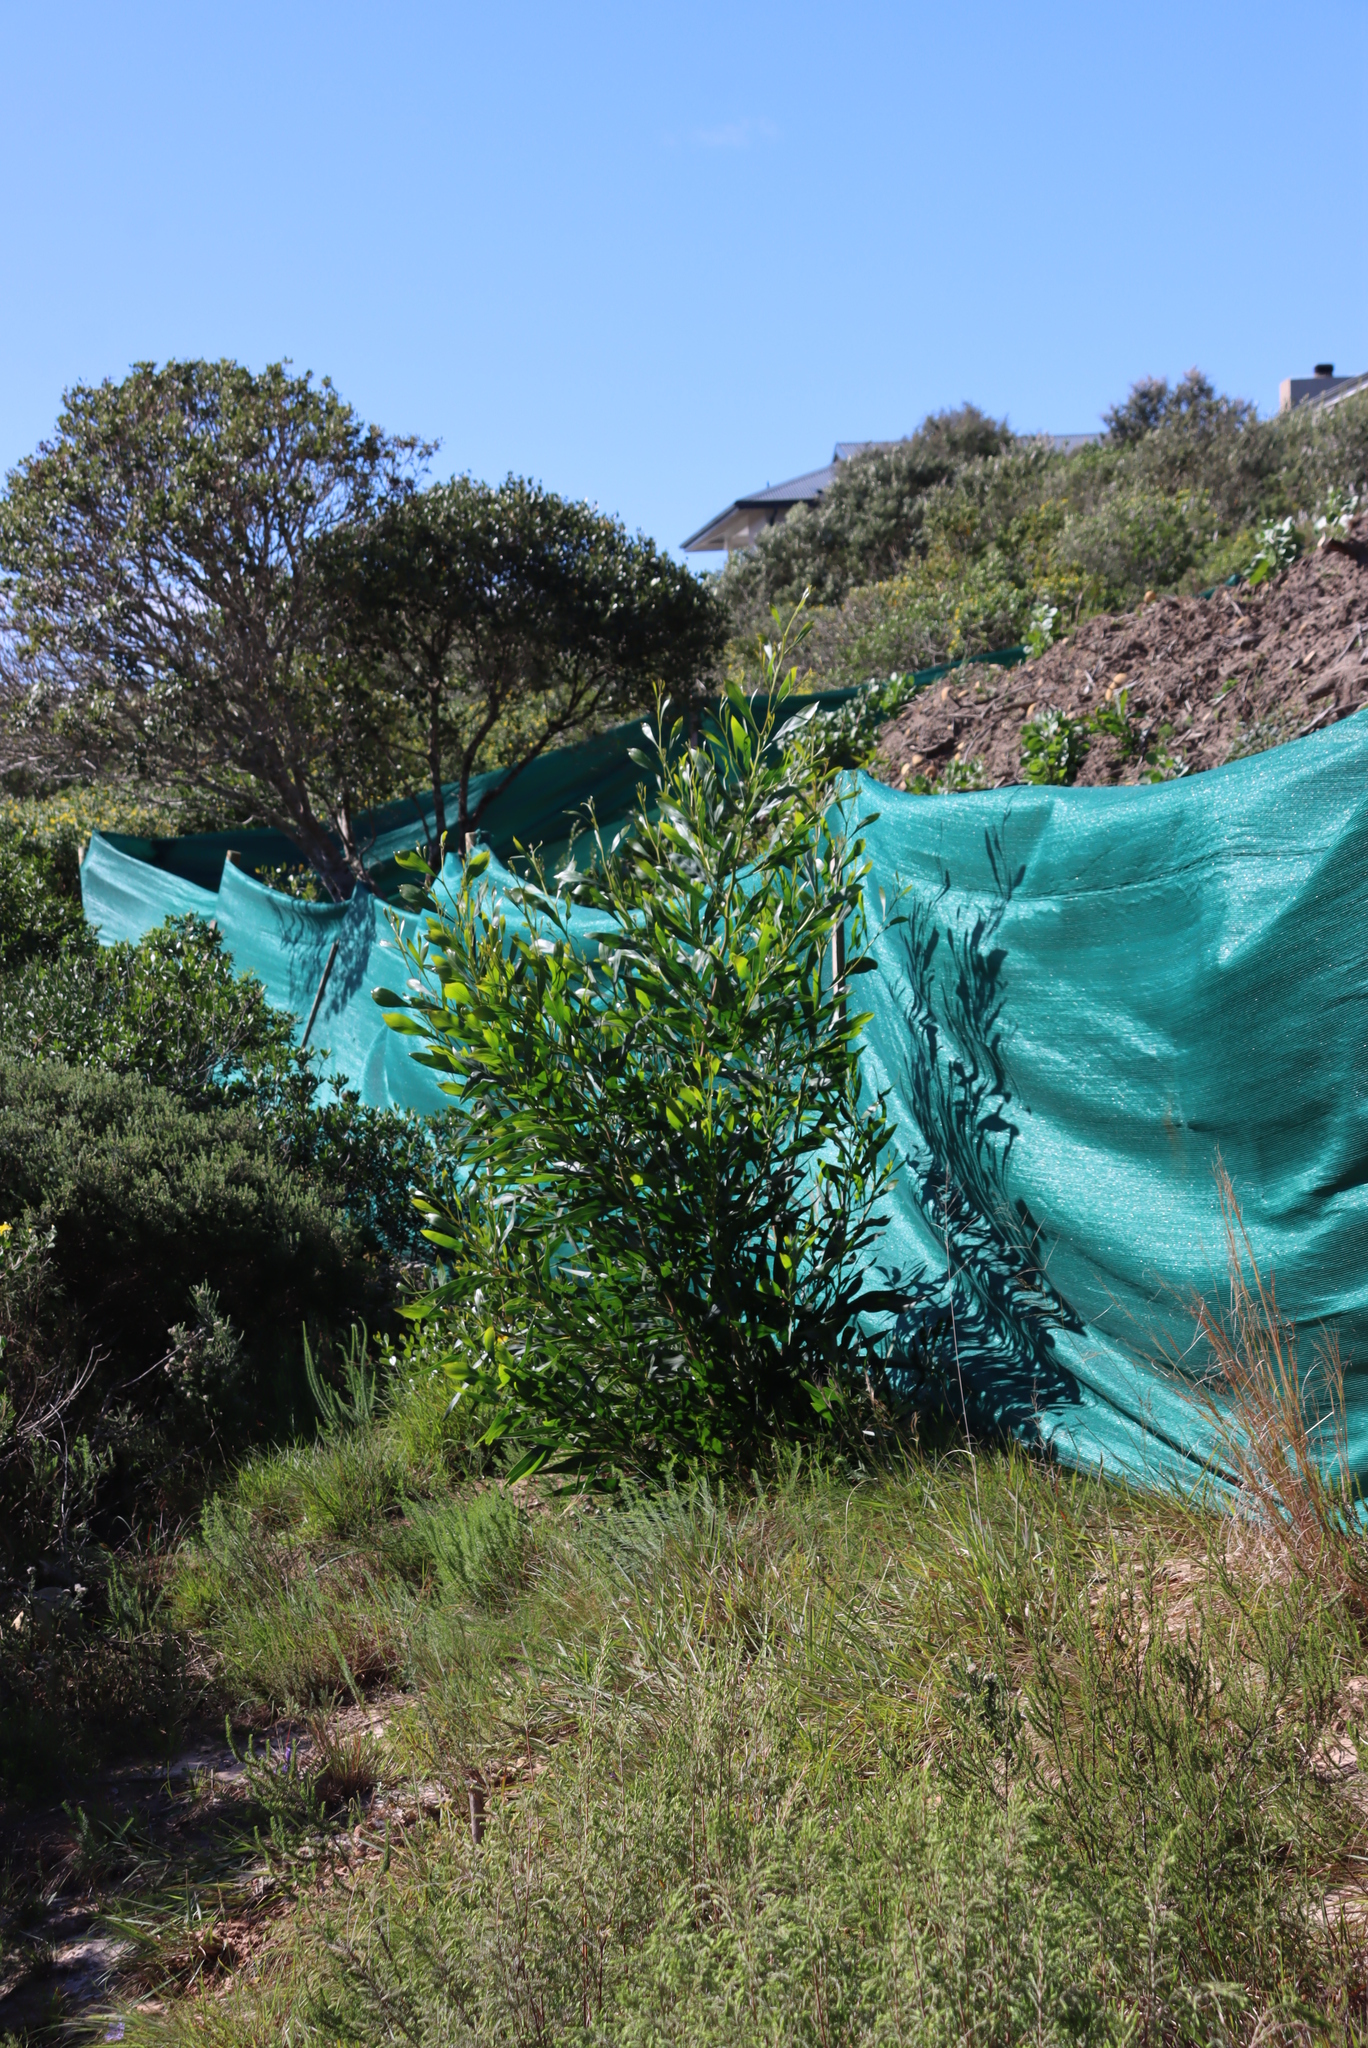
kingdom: Plantae
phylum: Tracheophyta
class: Magnoliopsida
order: Fabales
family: Fabaceae
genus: Acacia
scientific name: Acacia saligna
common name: Orange wattle
